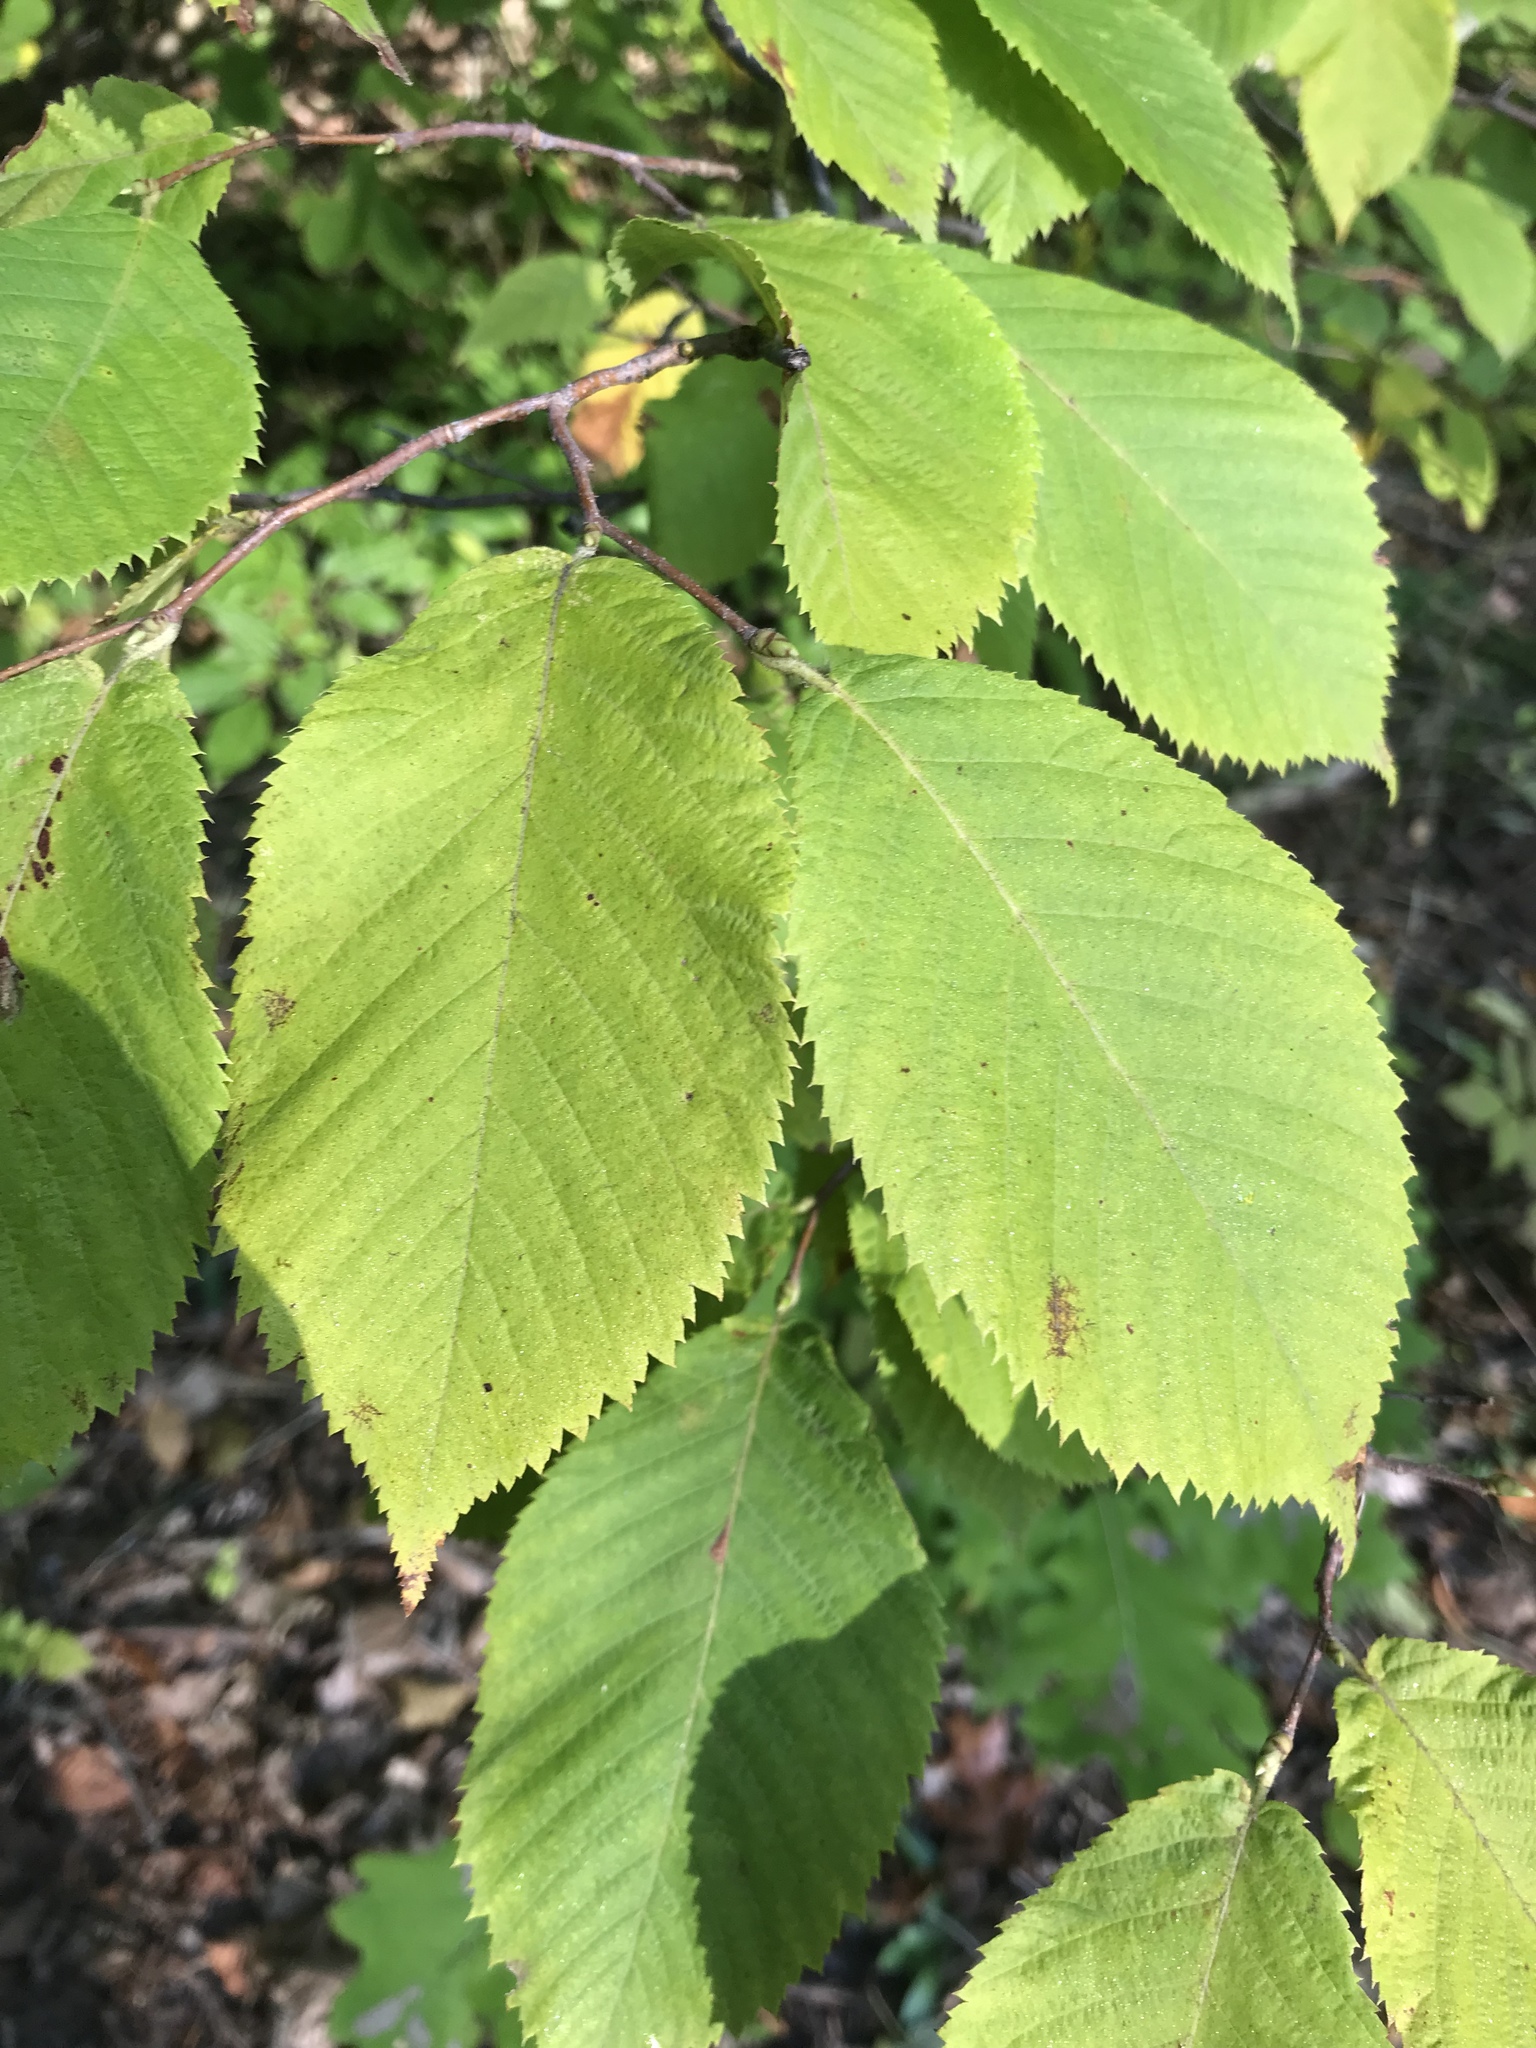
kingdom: Plantae
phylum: Tracheophyta
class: Magnoliopsida
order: Fagales
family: Betulaceae
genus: Ostrya
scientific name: Ostrya virginiana
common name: Ironwood
